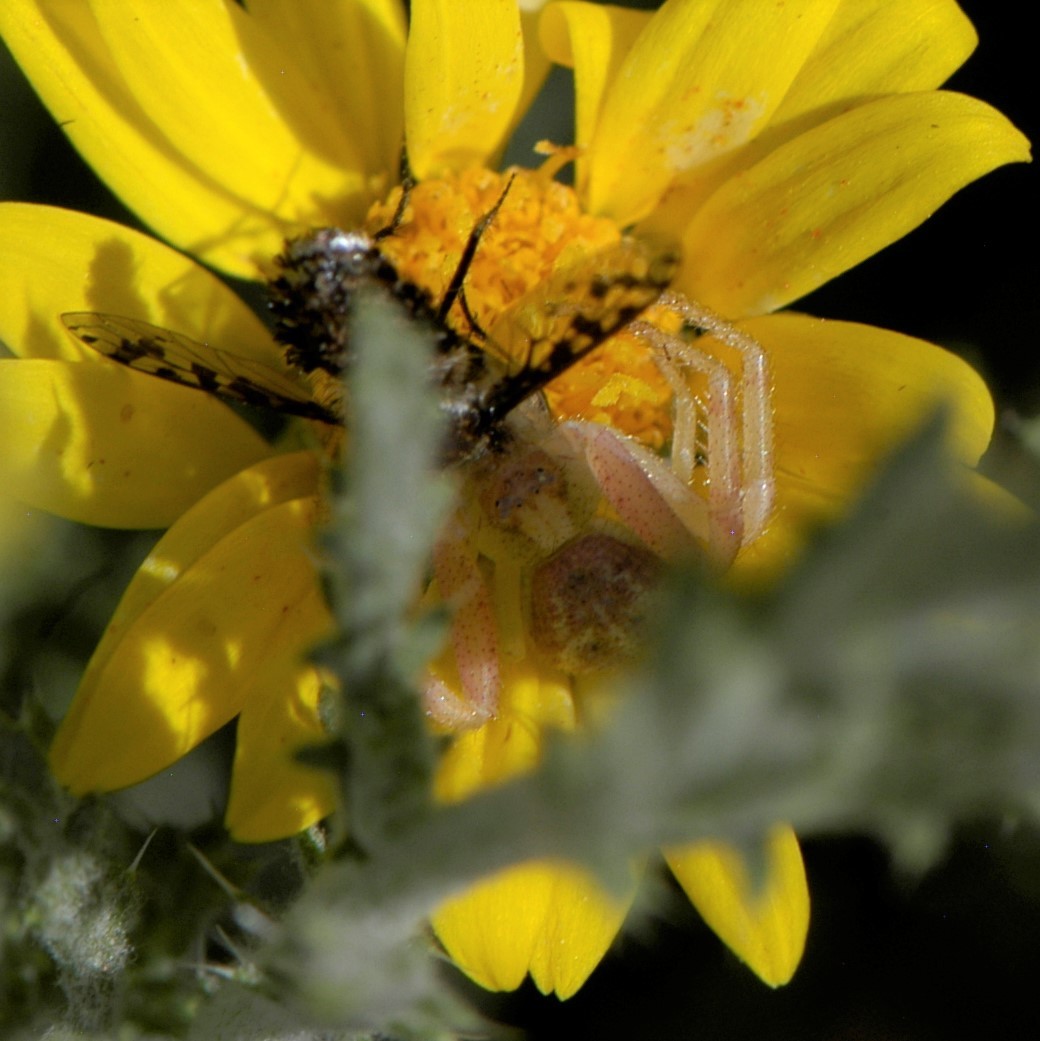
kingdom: Animalia
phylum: Arthropoda
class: Arachnida
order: Araneae
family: Thomisidae
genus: Mecaphesa
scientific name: Mecaphesa
